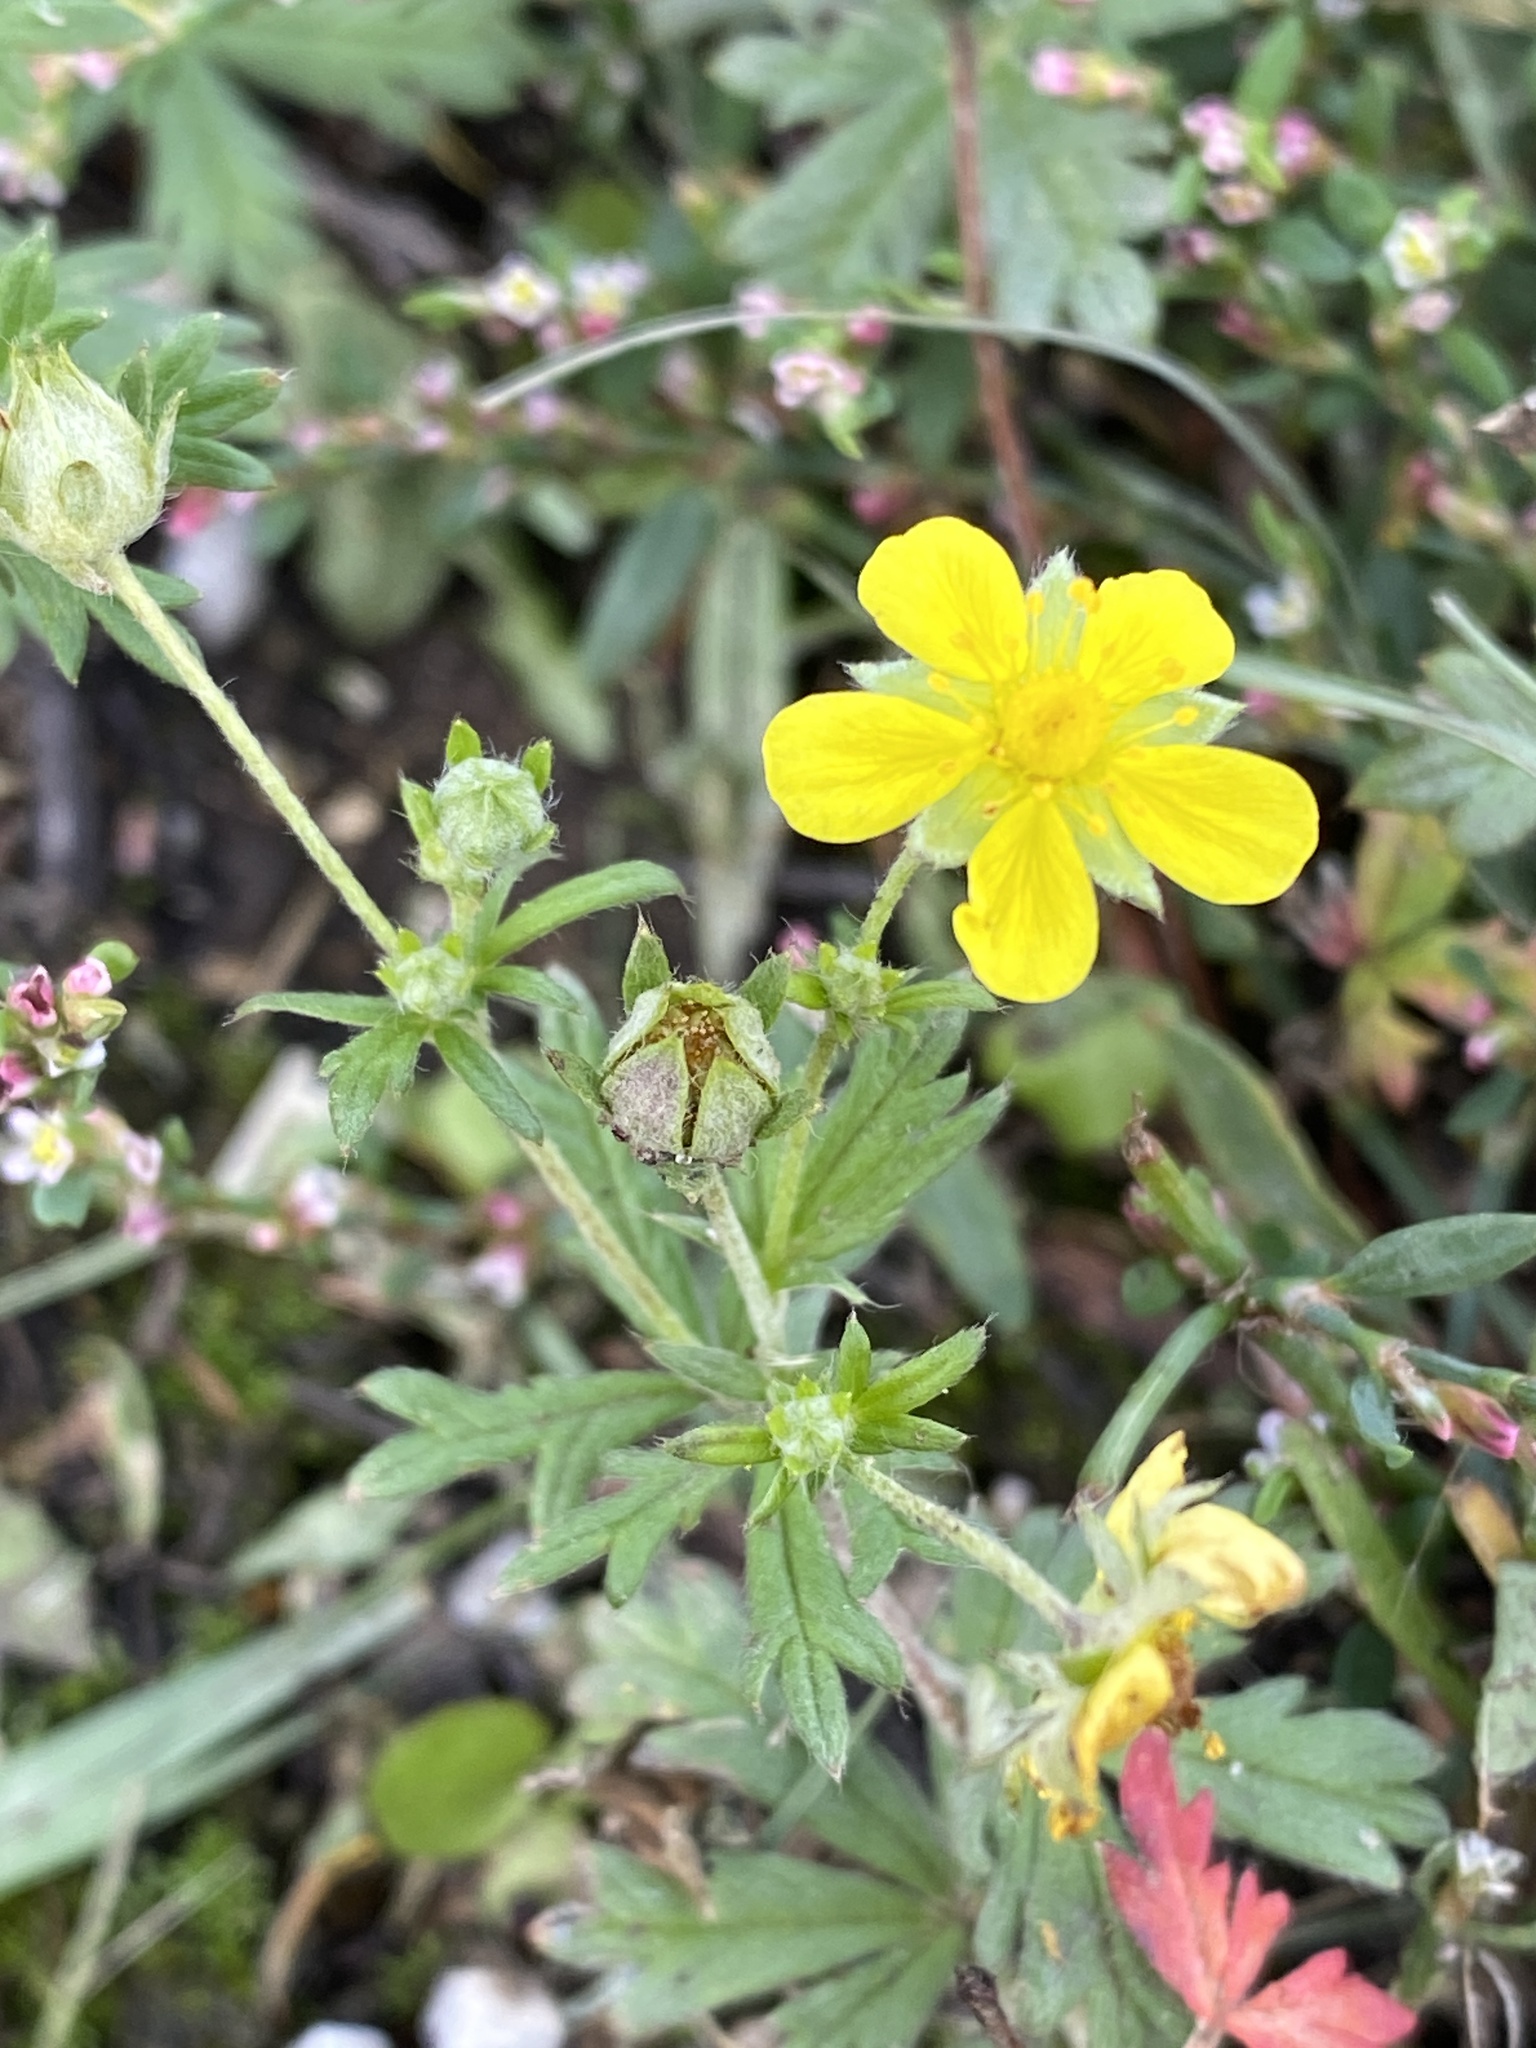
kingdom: Plantae
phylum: Tracheophyta
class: Magnoliopsida
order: Rosales
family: Rosaceae
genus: Potentilla
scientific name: Potentilla argentea
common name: Hoary cinquefoil
